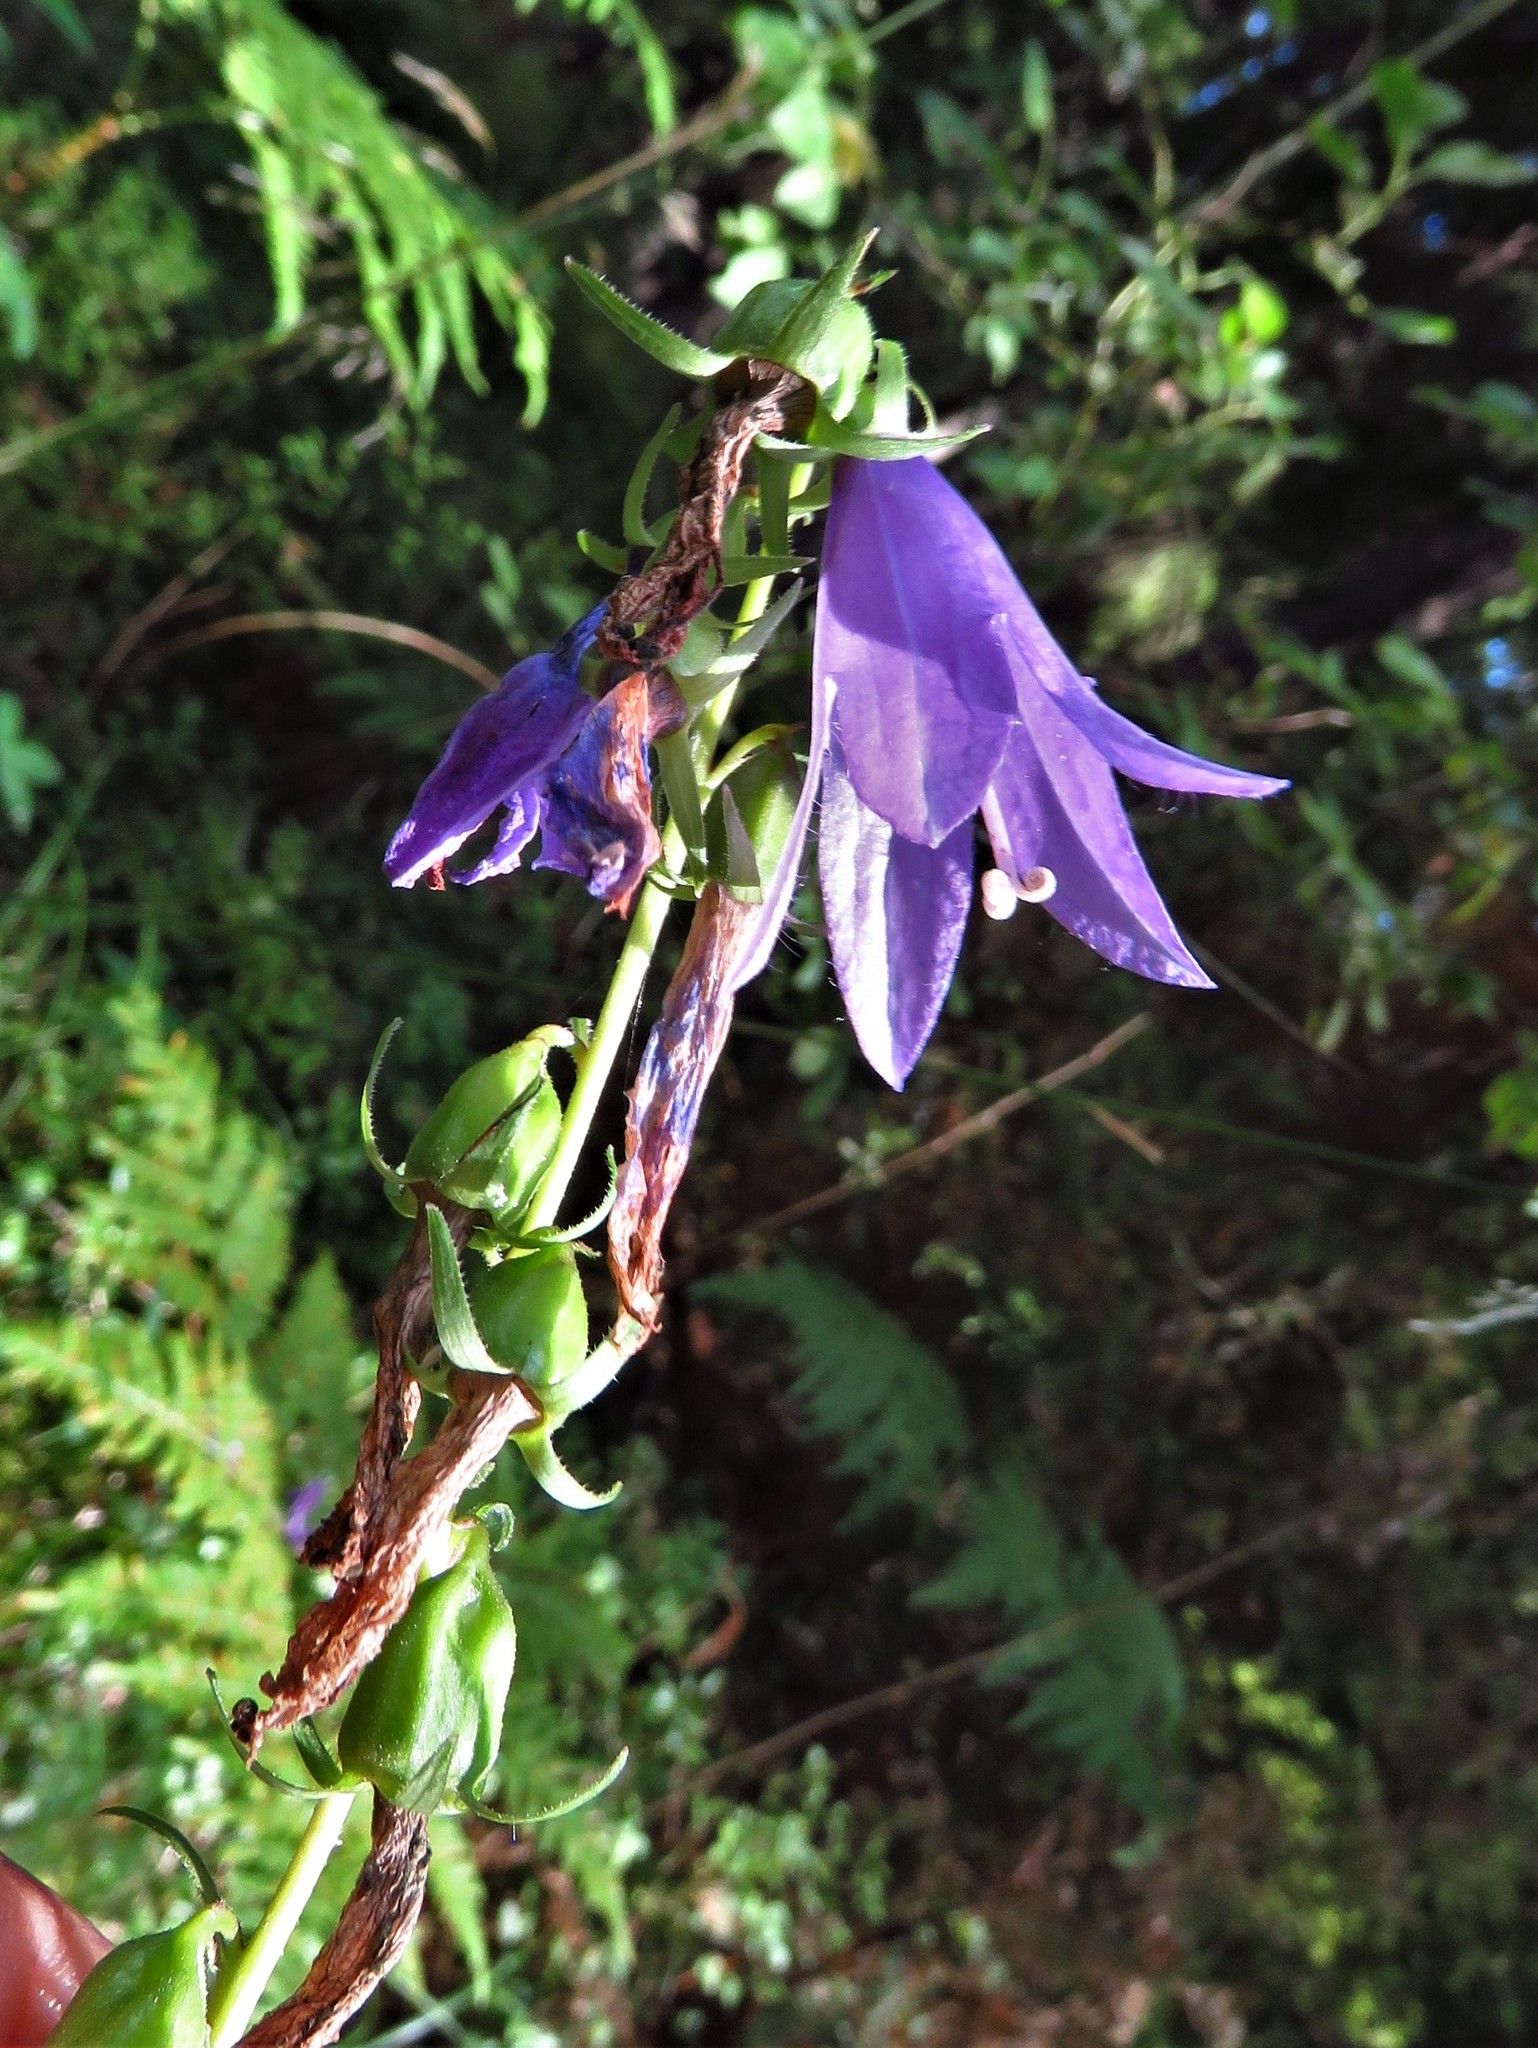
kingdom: Plantae
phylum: Tracheophyta
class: Magnoliopsida
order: Asterales
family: Campanulaceae
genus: Campanula
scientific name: Campanula rapunculoides
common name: Creeping bellflower
